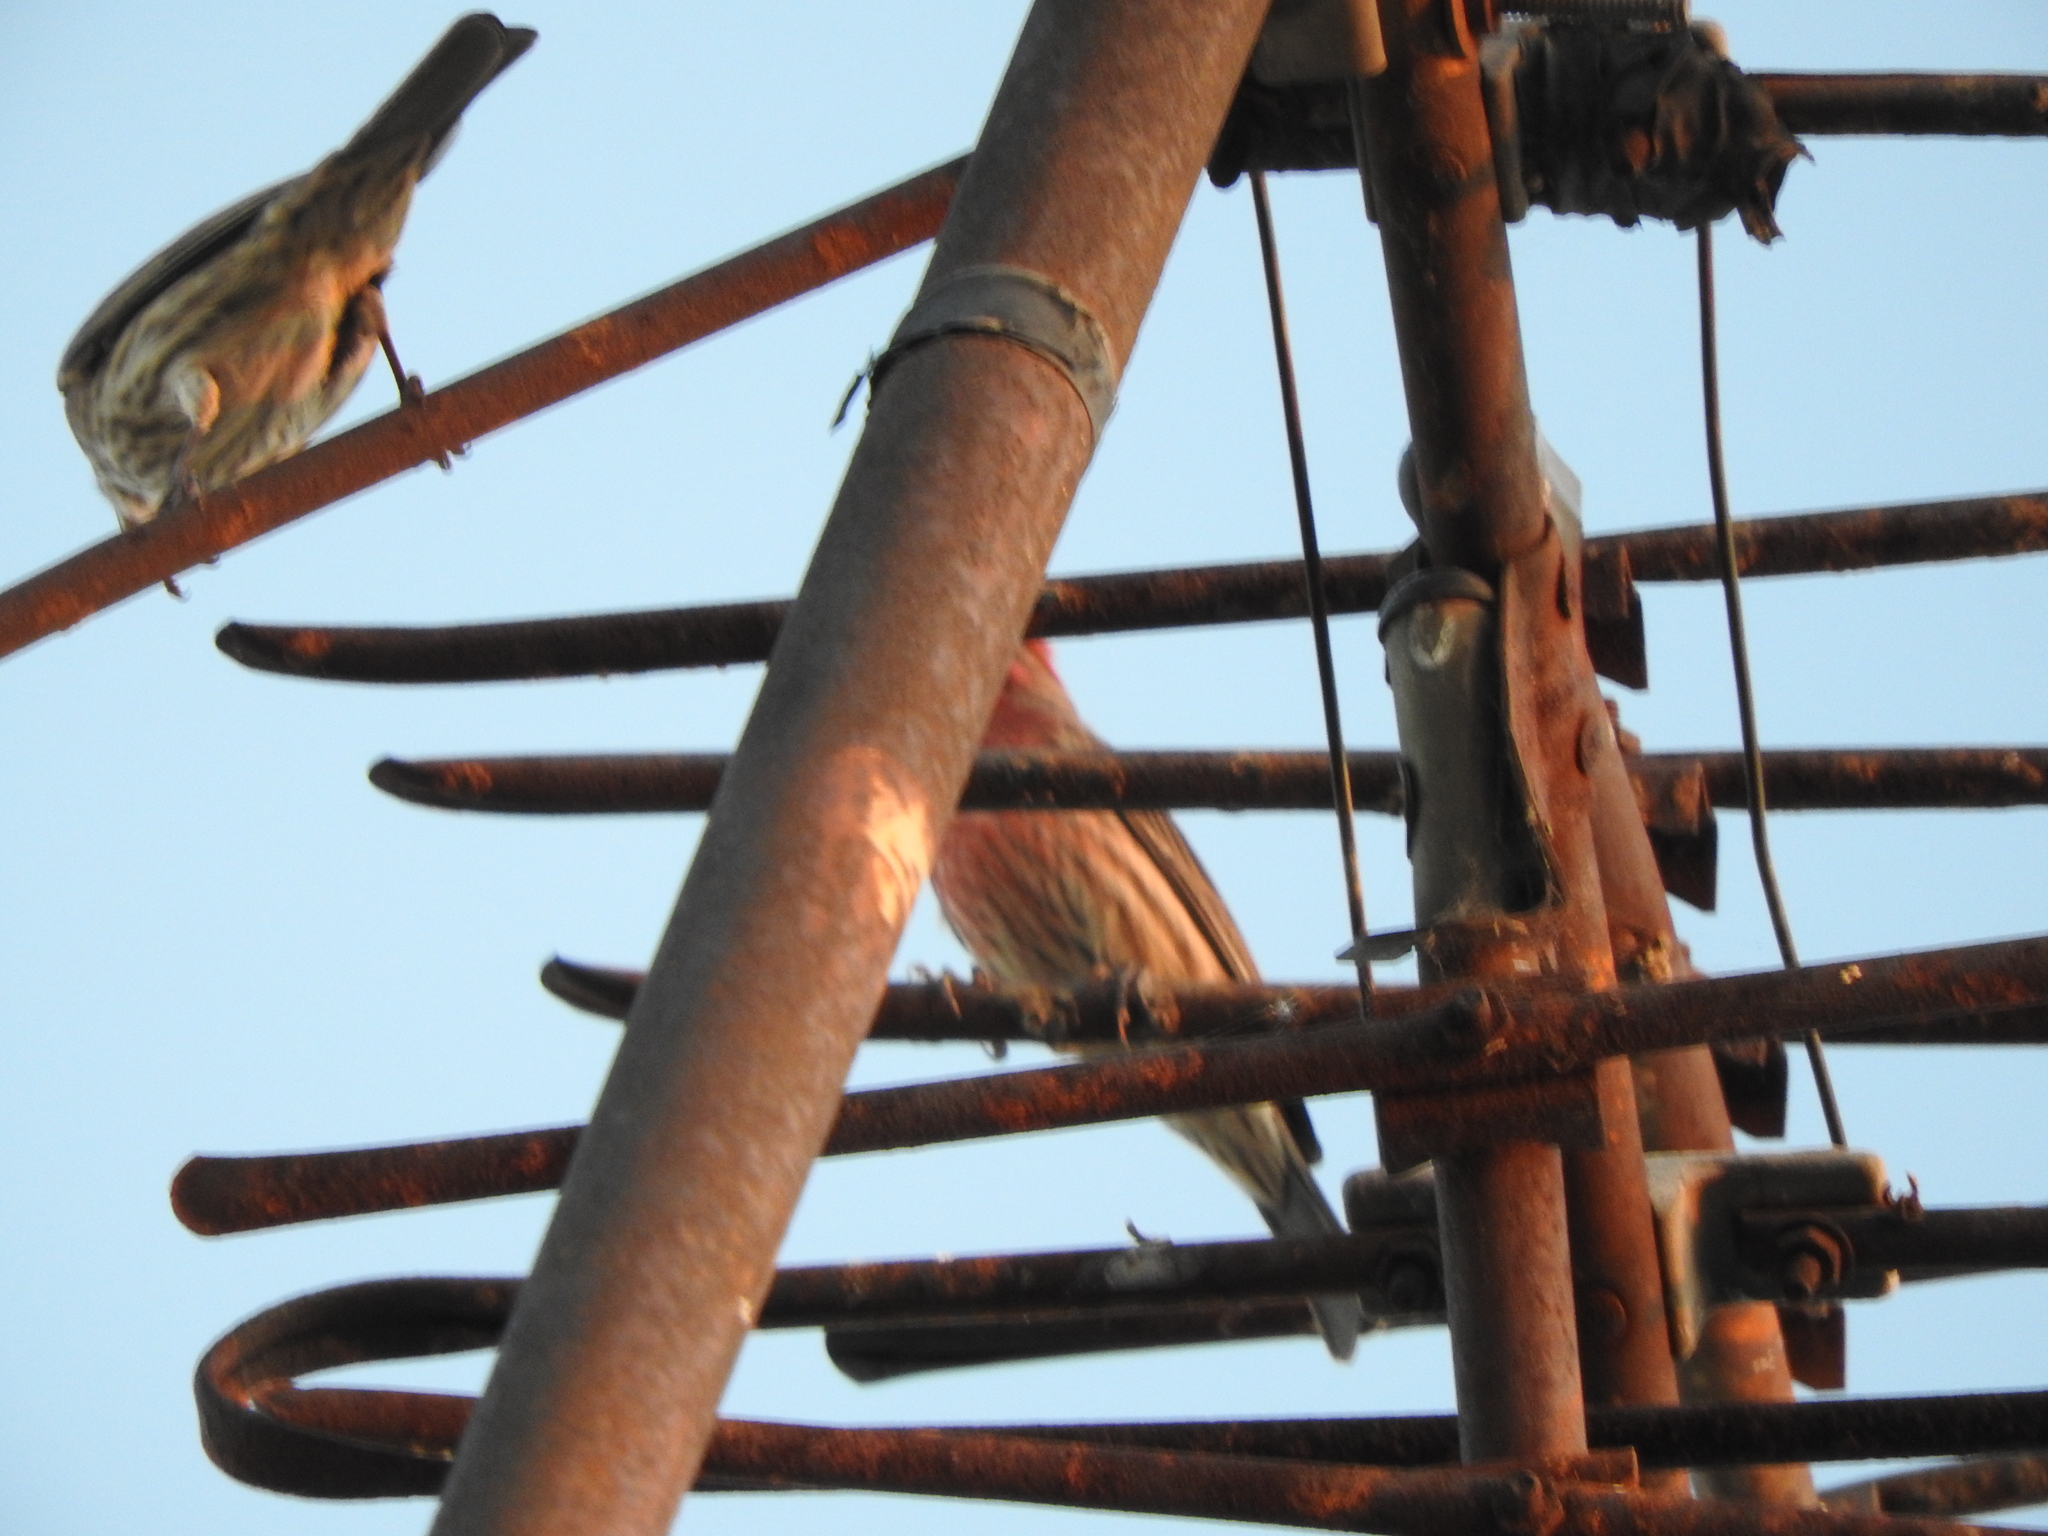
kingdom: Animalia
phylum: Chordata
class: Aves
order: Passeriformes
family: Fringillidae
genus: Haemorhous
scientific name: Haemorhous mexicanus
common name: House finch
